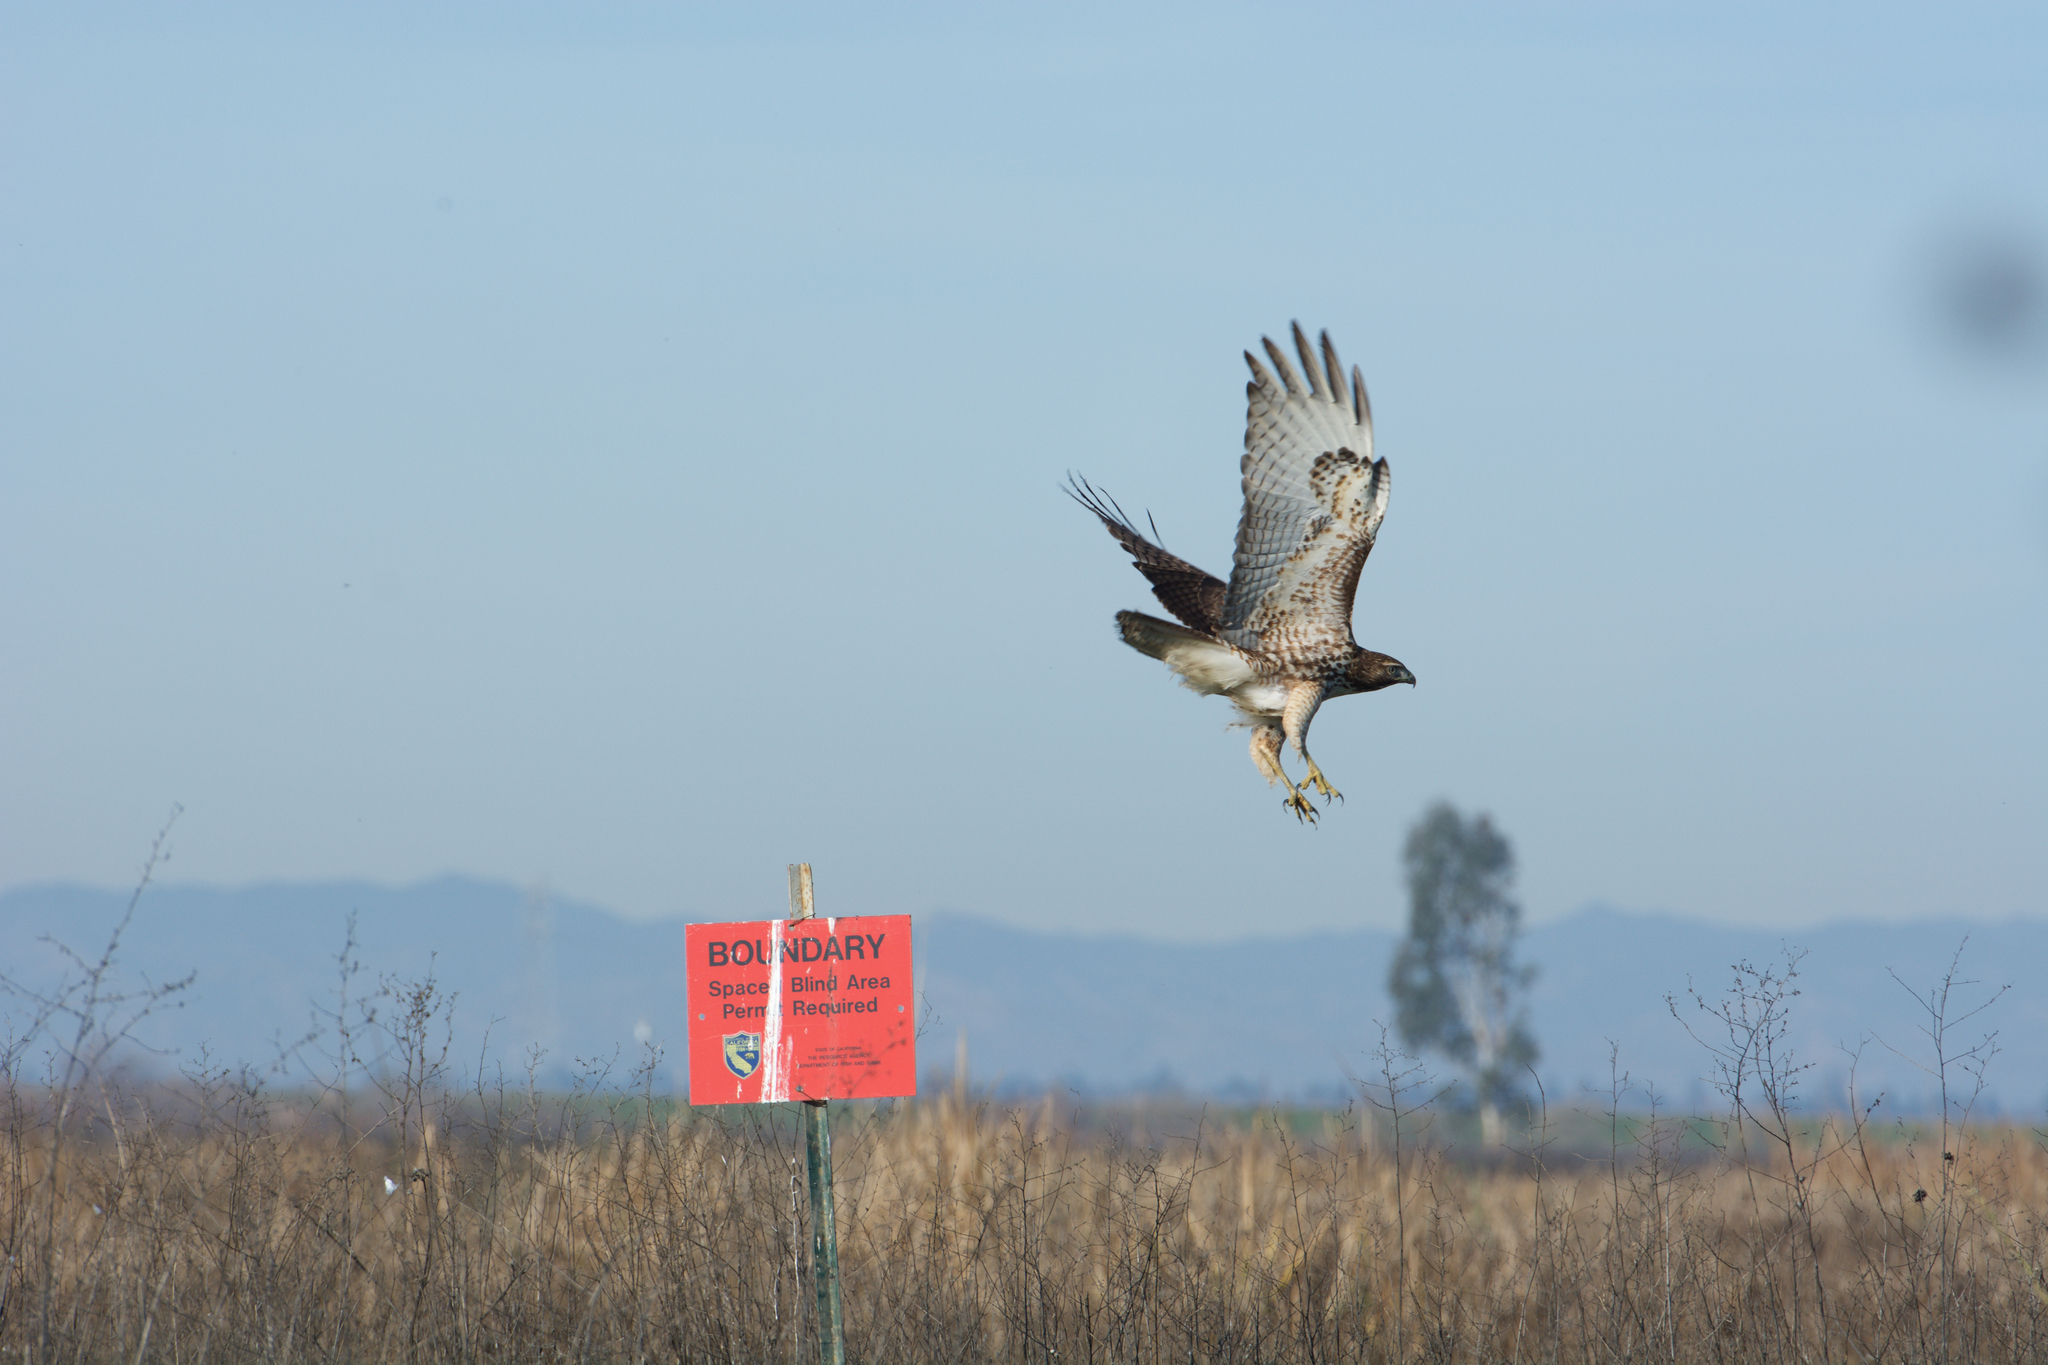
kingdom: Animalia
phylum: Chordata
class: Aves
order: Accipitriformes
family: Accipitridae
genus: Buteo
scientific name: Buteo jamaicensis
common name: Red-tailed hawk
